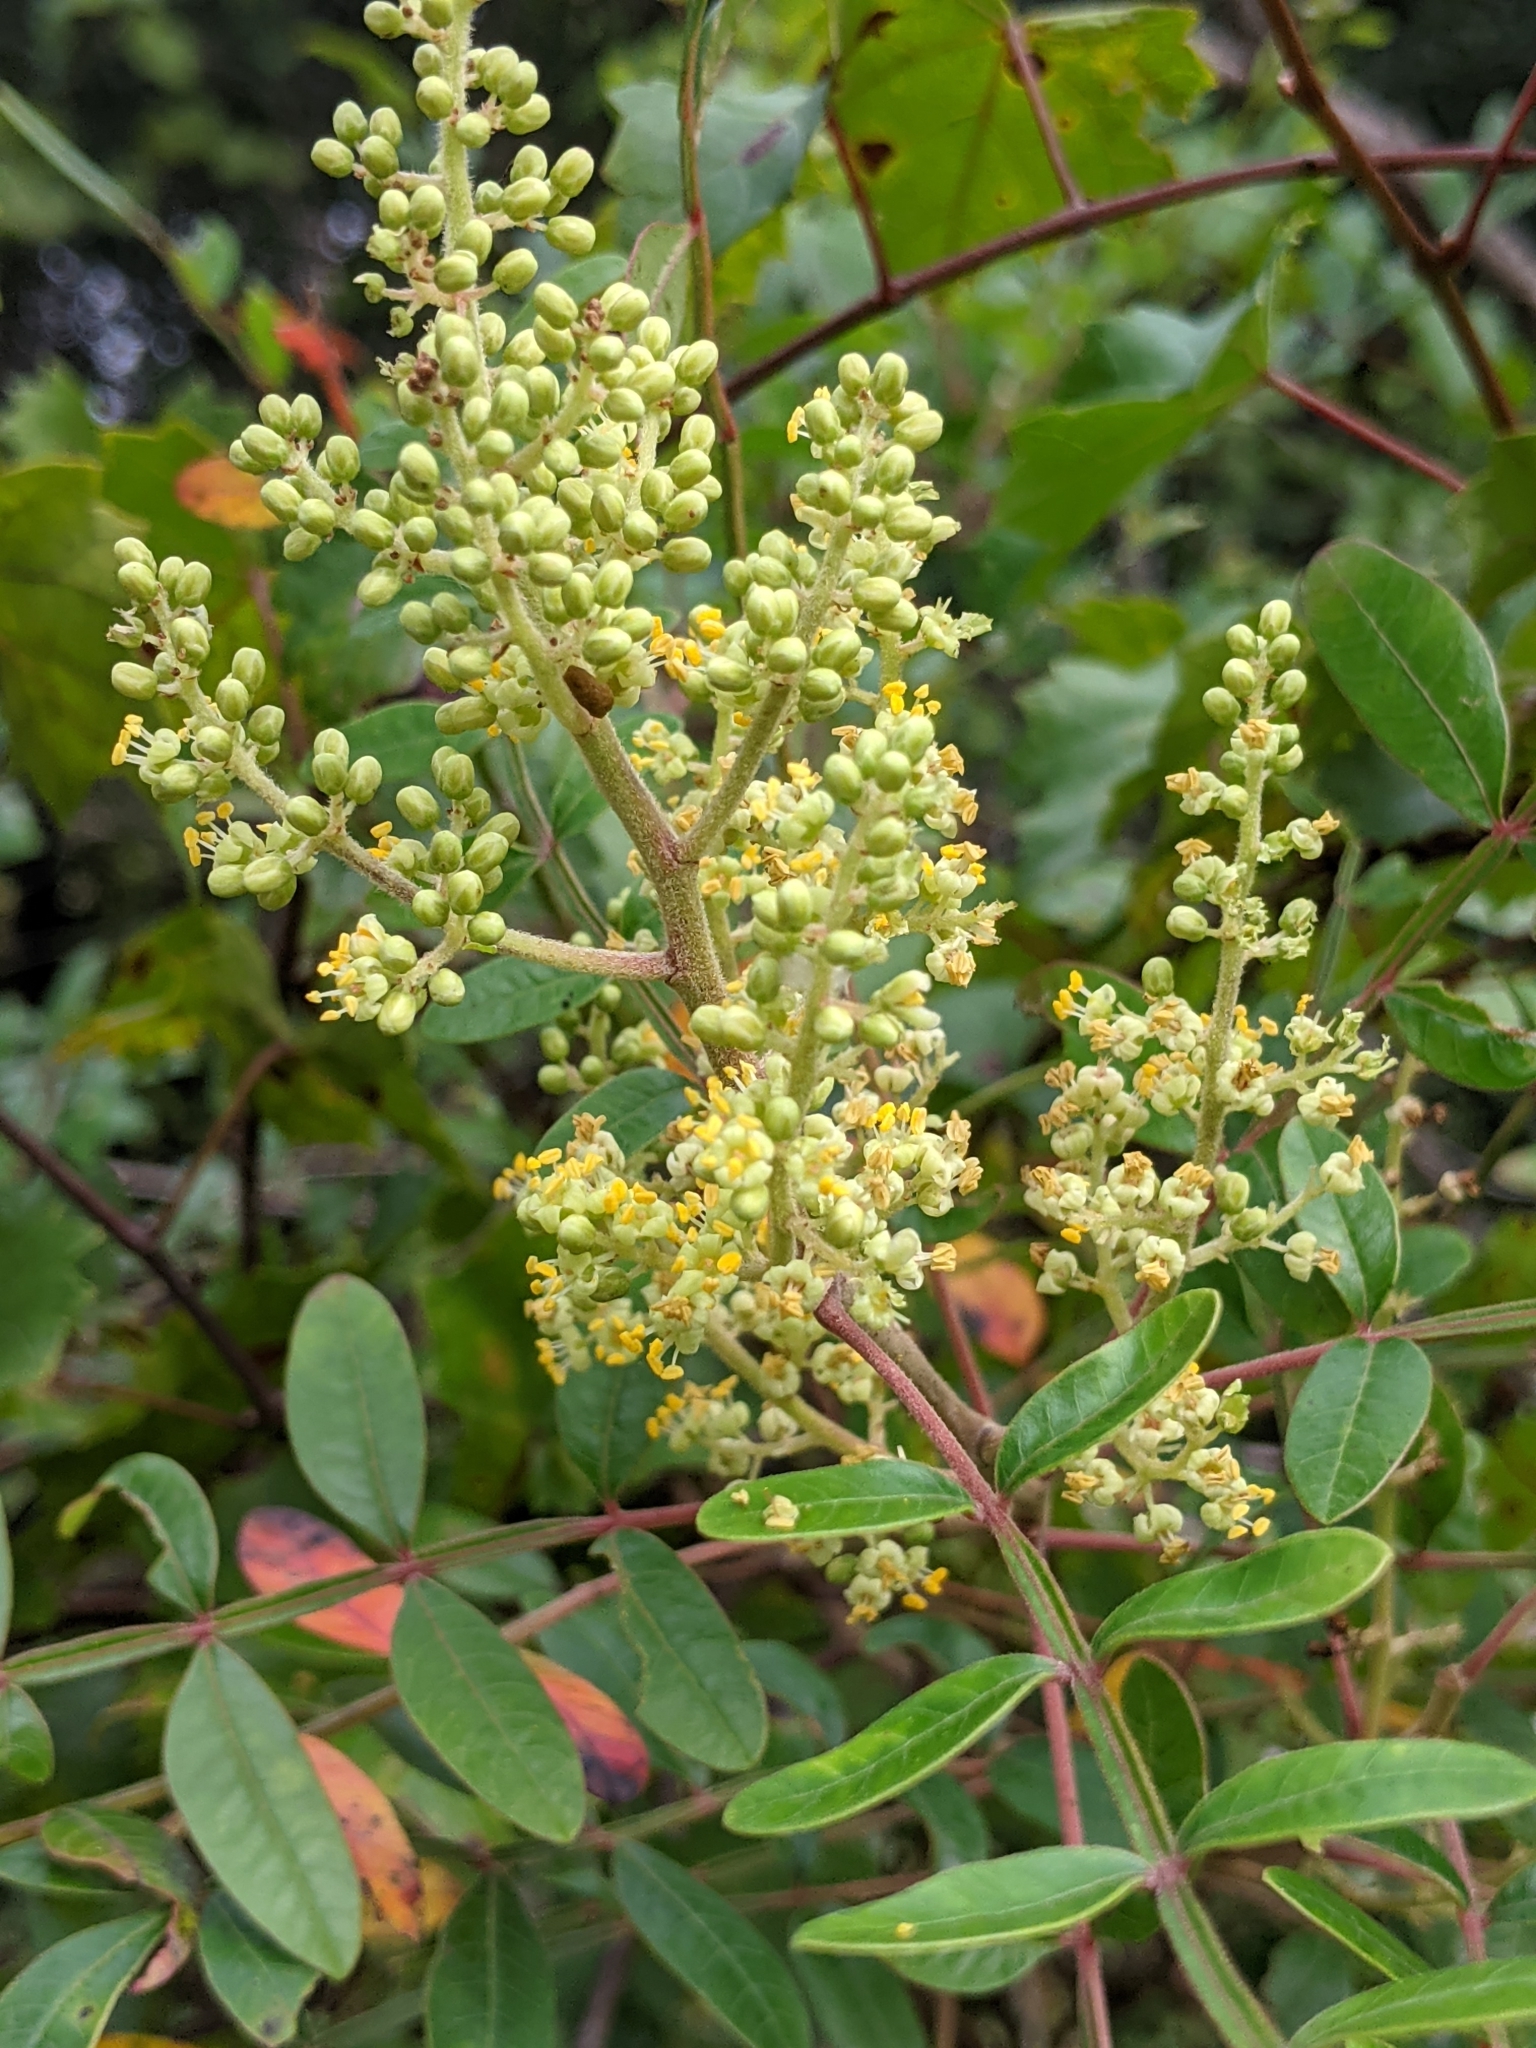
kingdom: Plantae
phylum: Tracheophyta
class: Magnoliopsida
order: Sapindales
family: Anacardiaceae
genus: Rhus
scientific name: Rhus copallina
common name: Shining sumac
